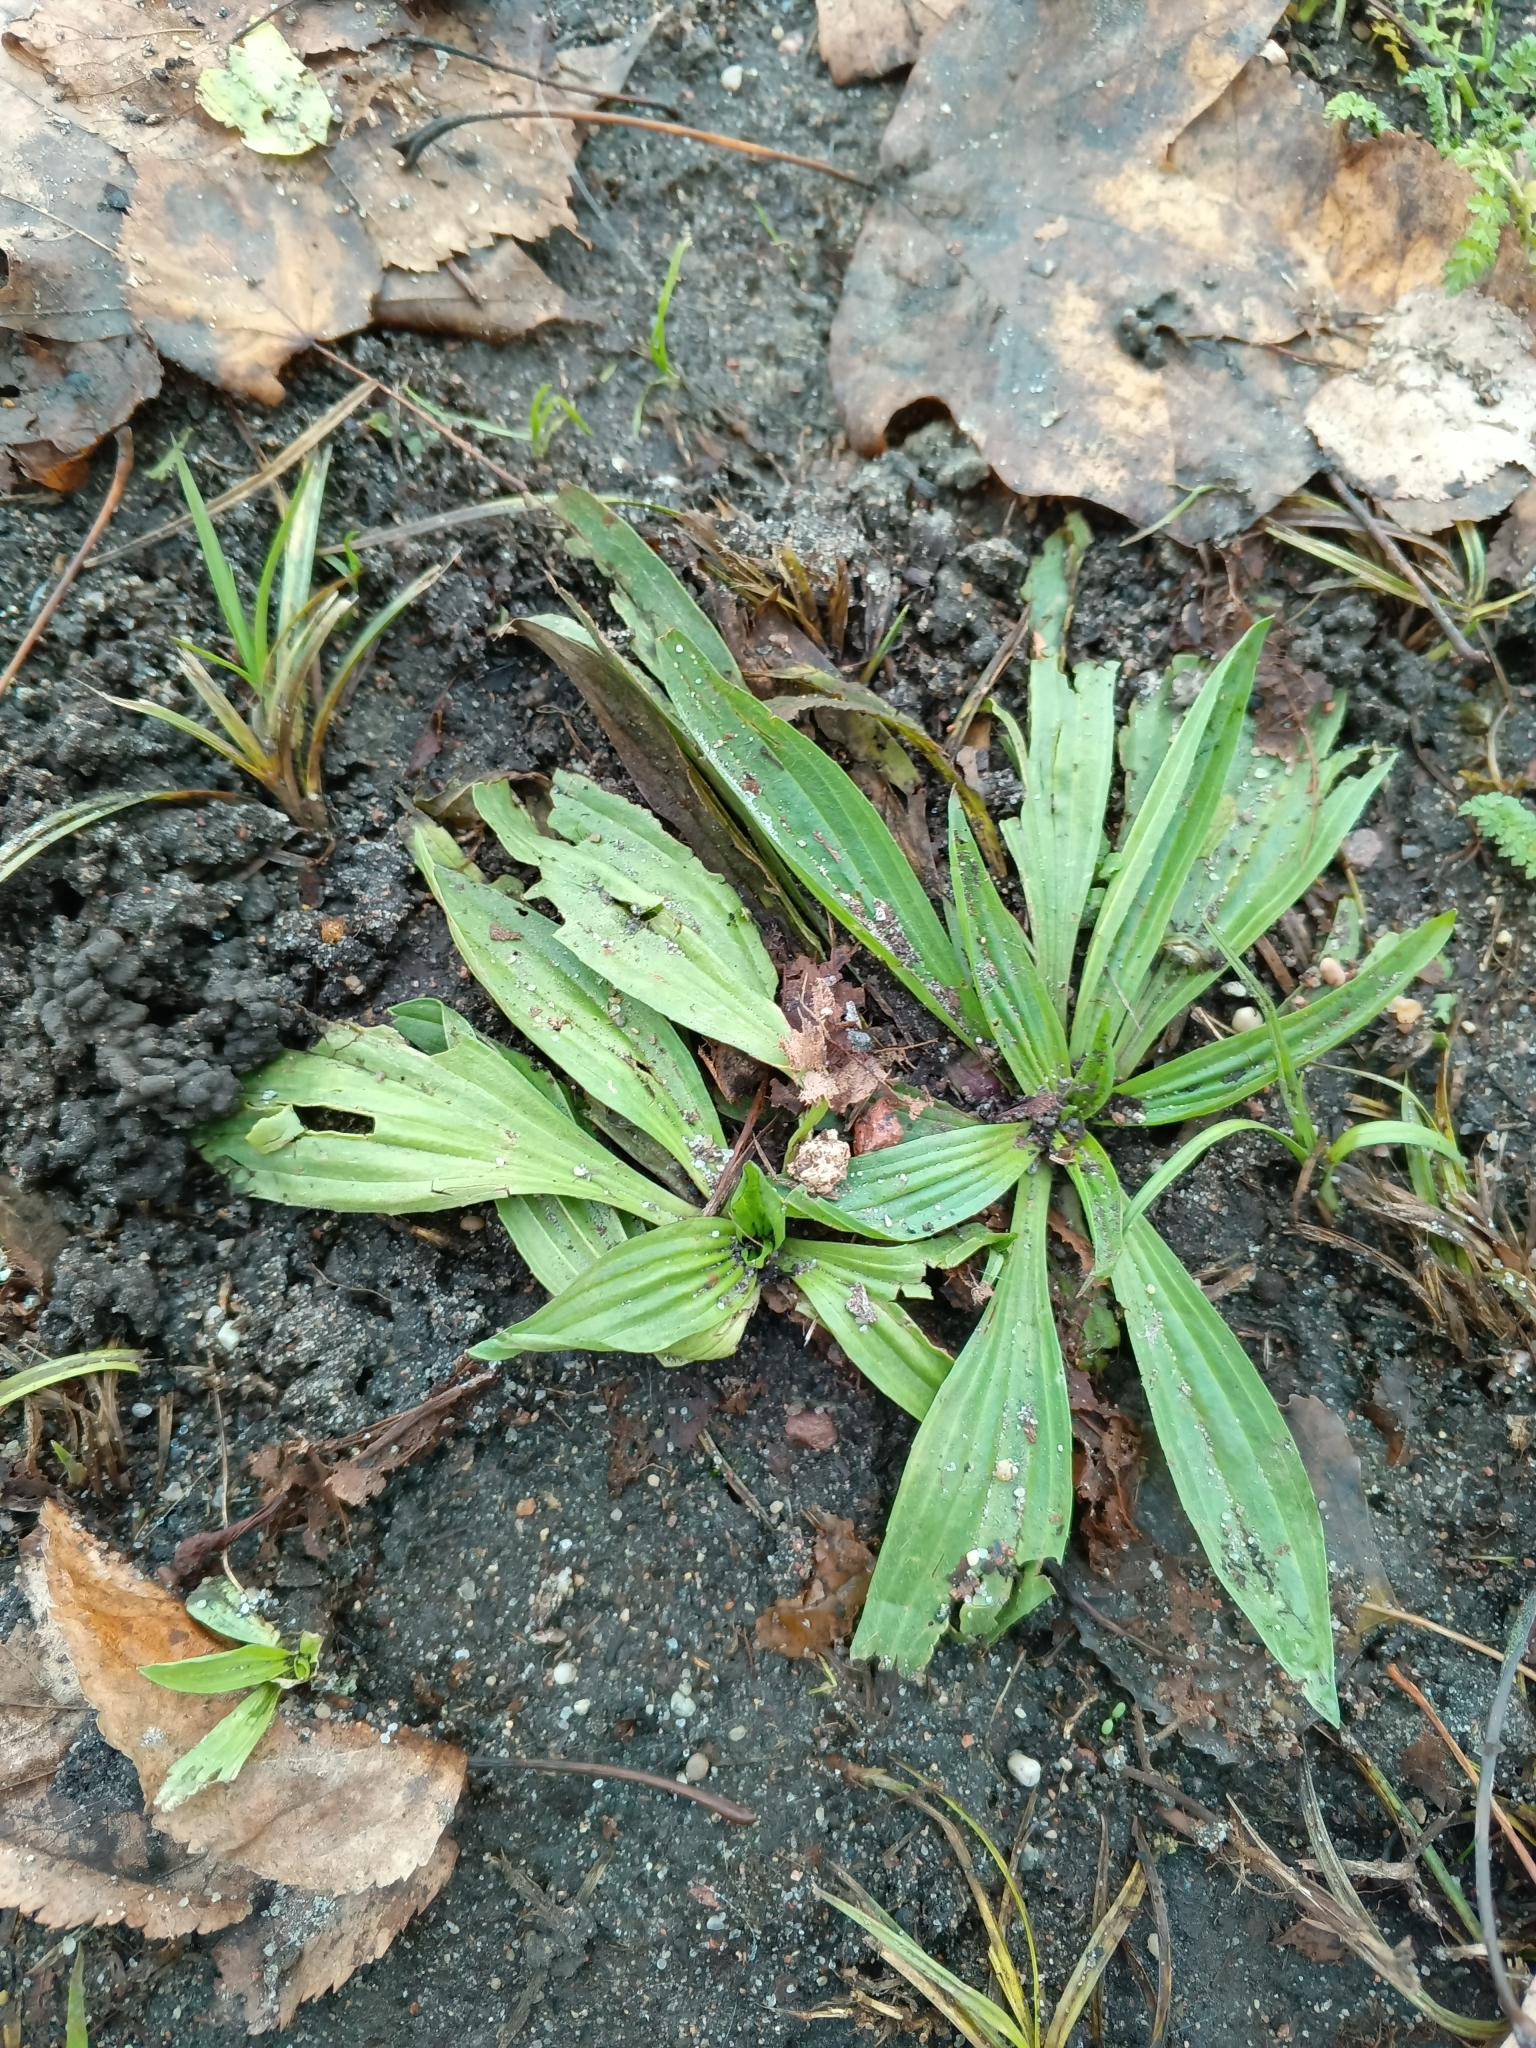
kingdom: Plantae
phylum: Tracheophyta
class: Magnoliopsida
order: Lamiales
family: Plantaginaceae
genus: Plantago
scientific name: Plantago lanceolata
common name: Ribwort plantain
